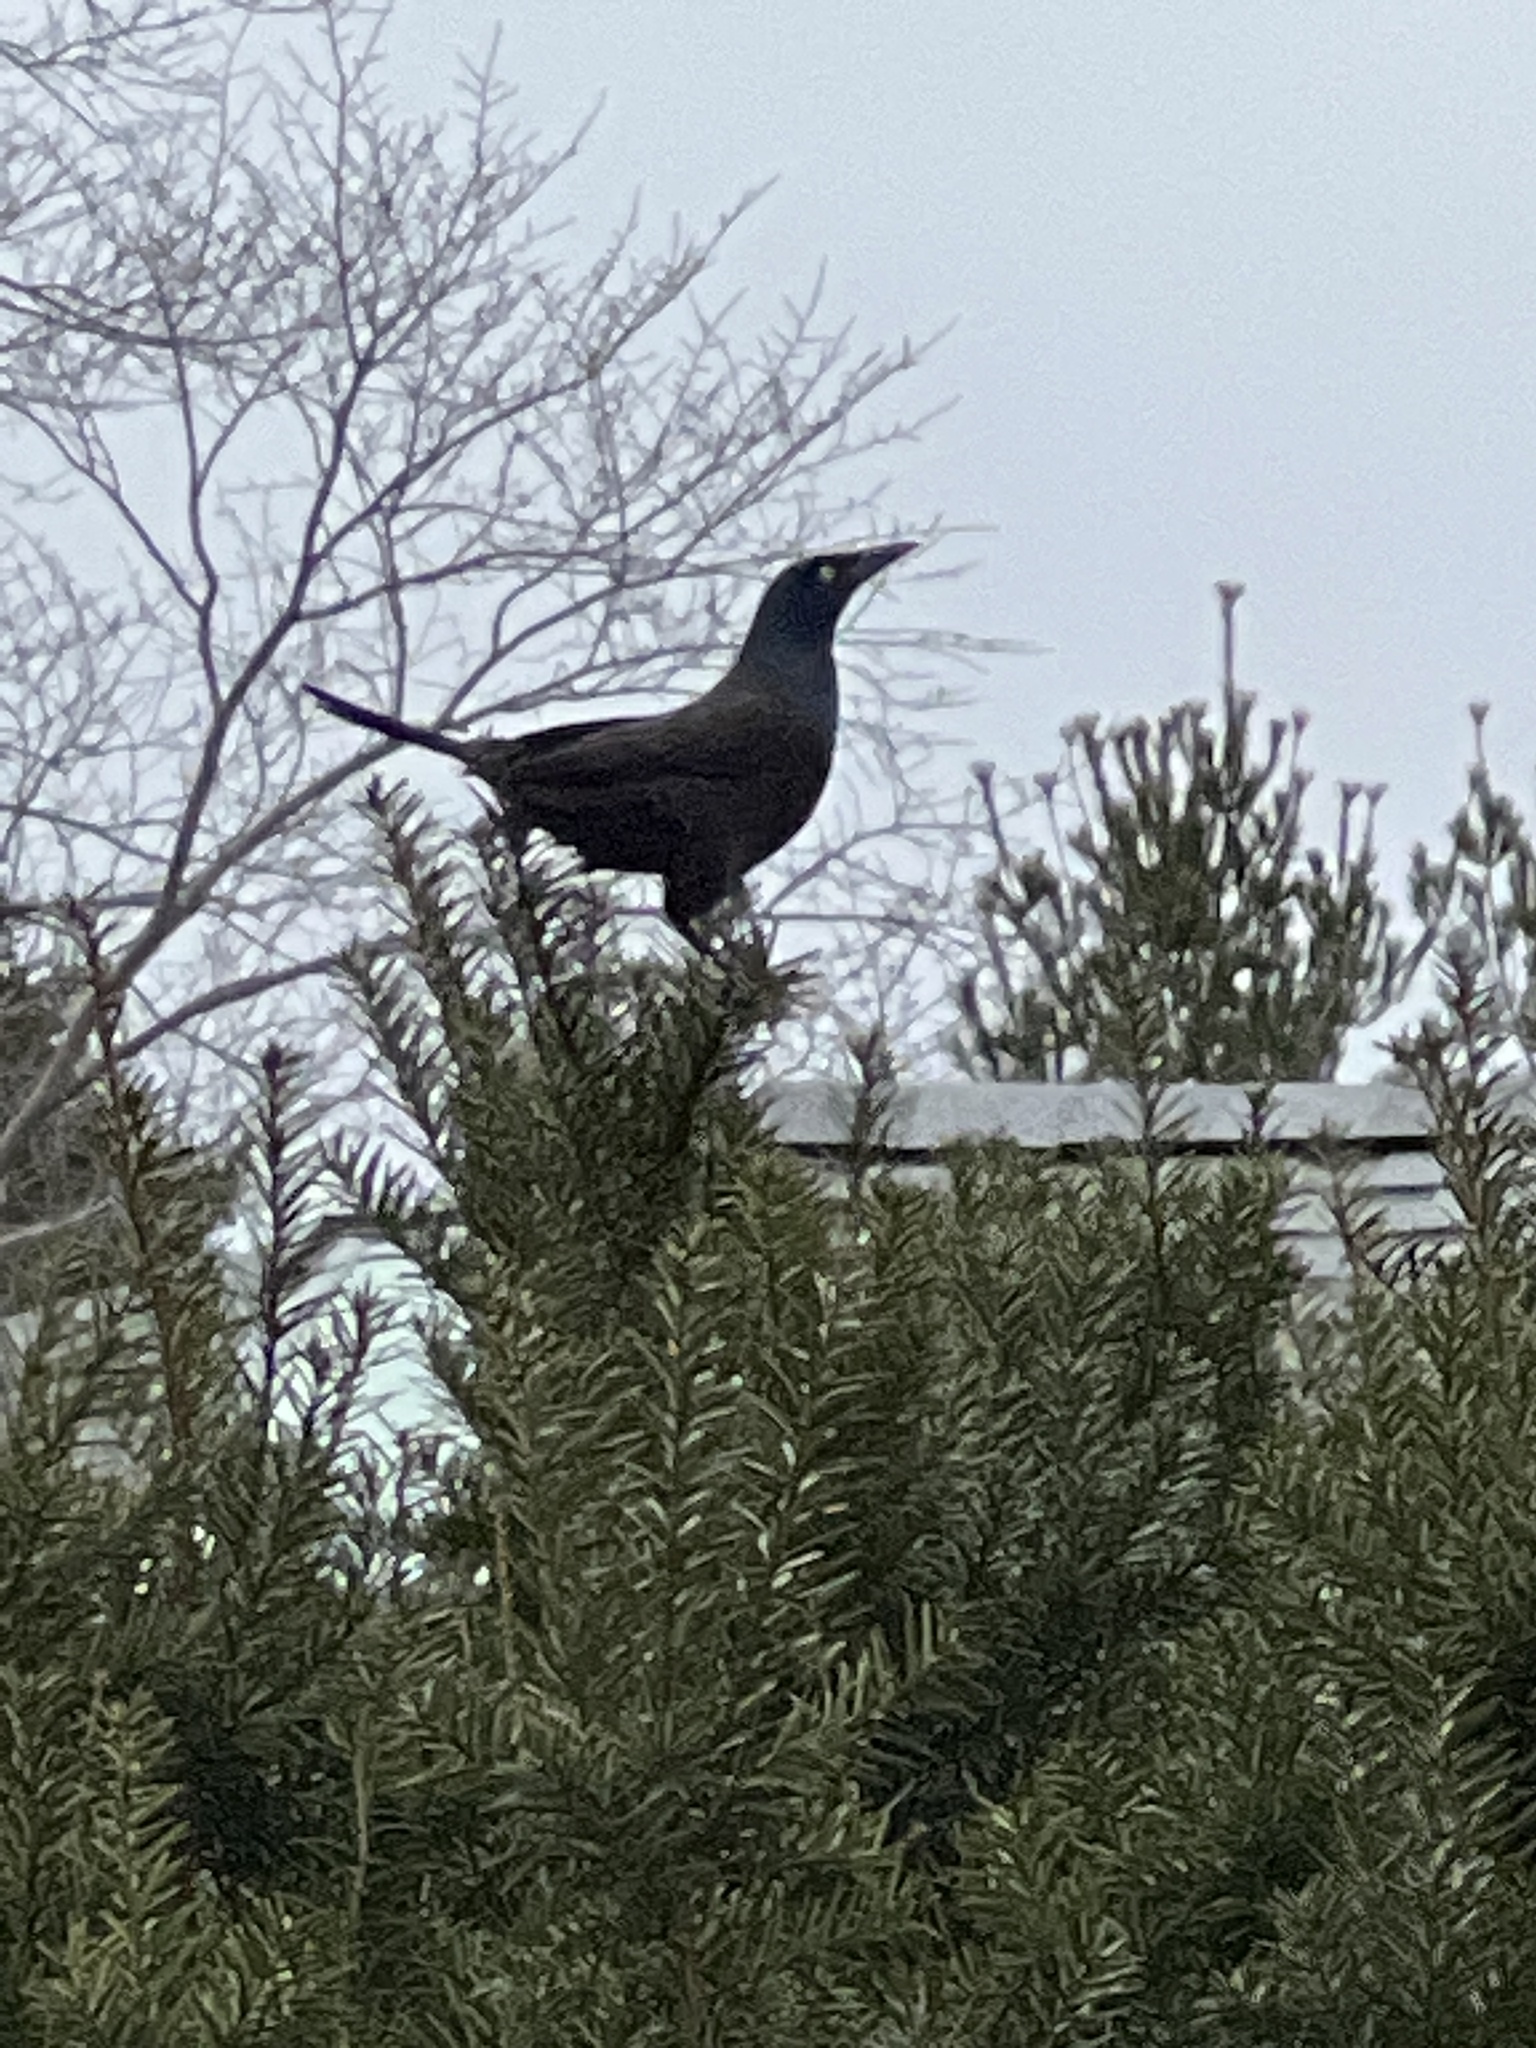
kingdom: Animalia
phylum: Chordata
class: Aves
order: Passeriformes
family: Icteridae
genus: Quiscalus
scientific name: Quiscalus quiscula
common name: Common grackle
